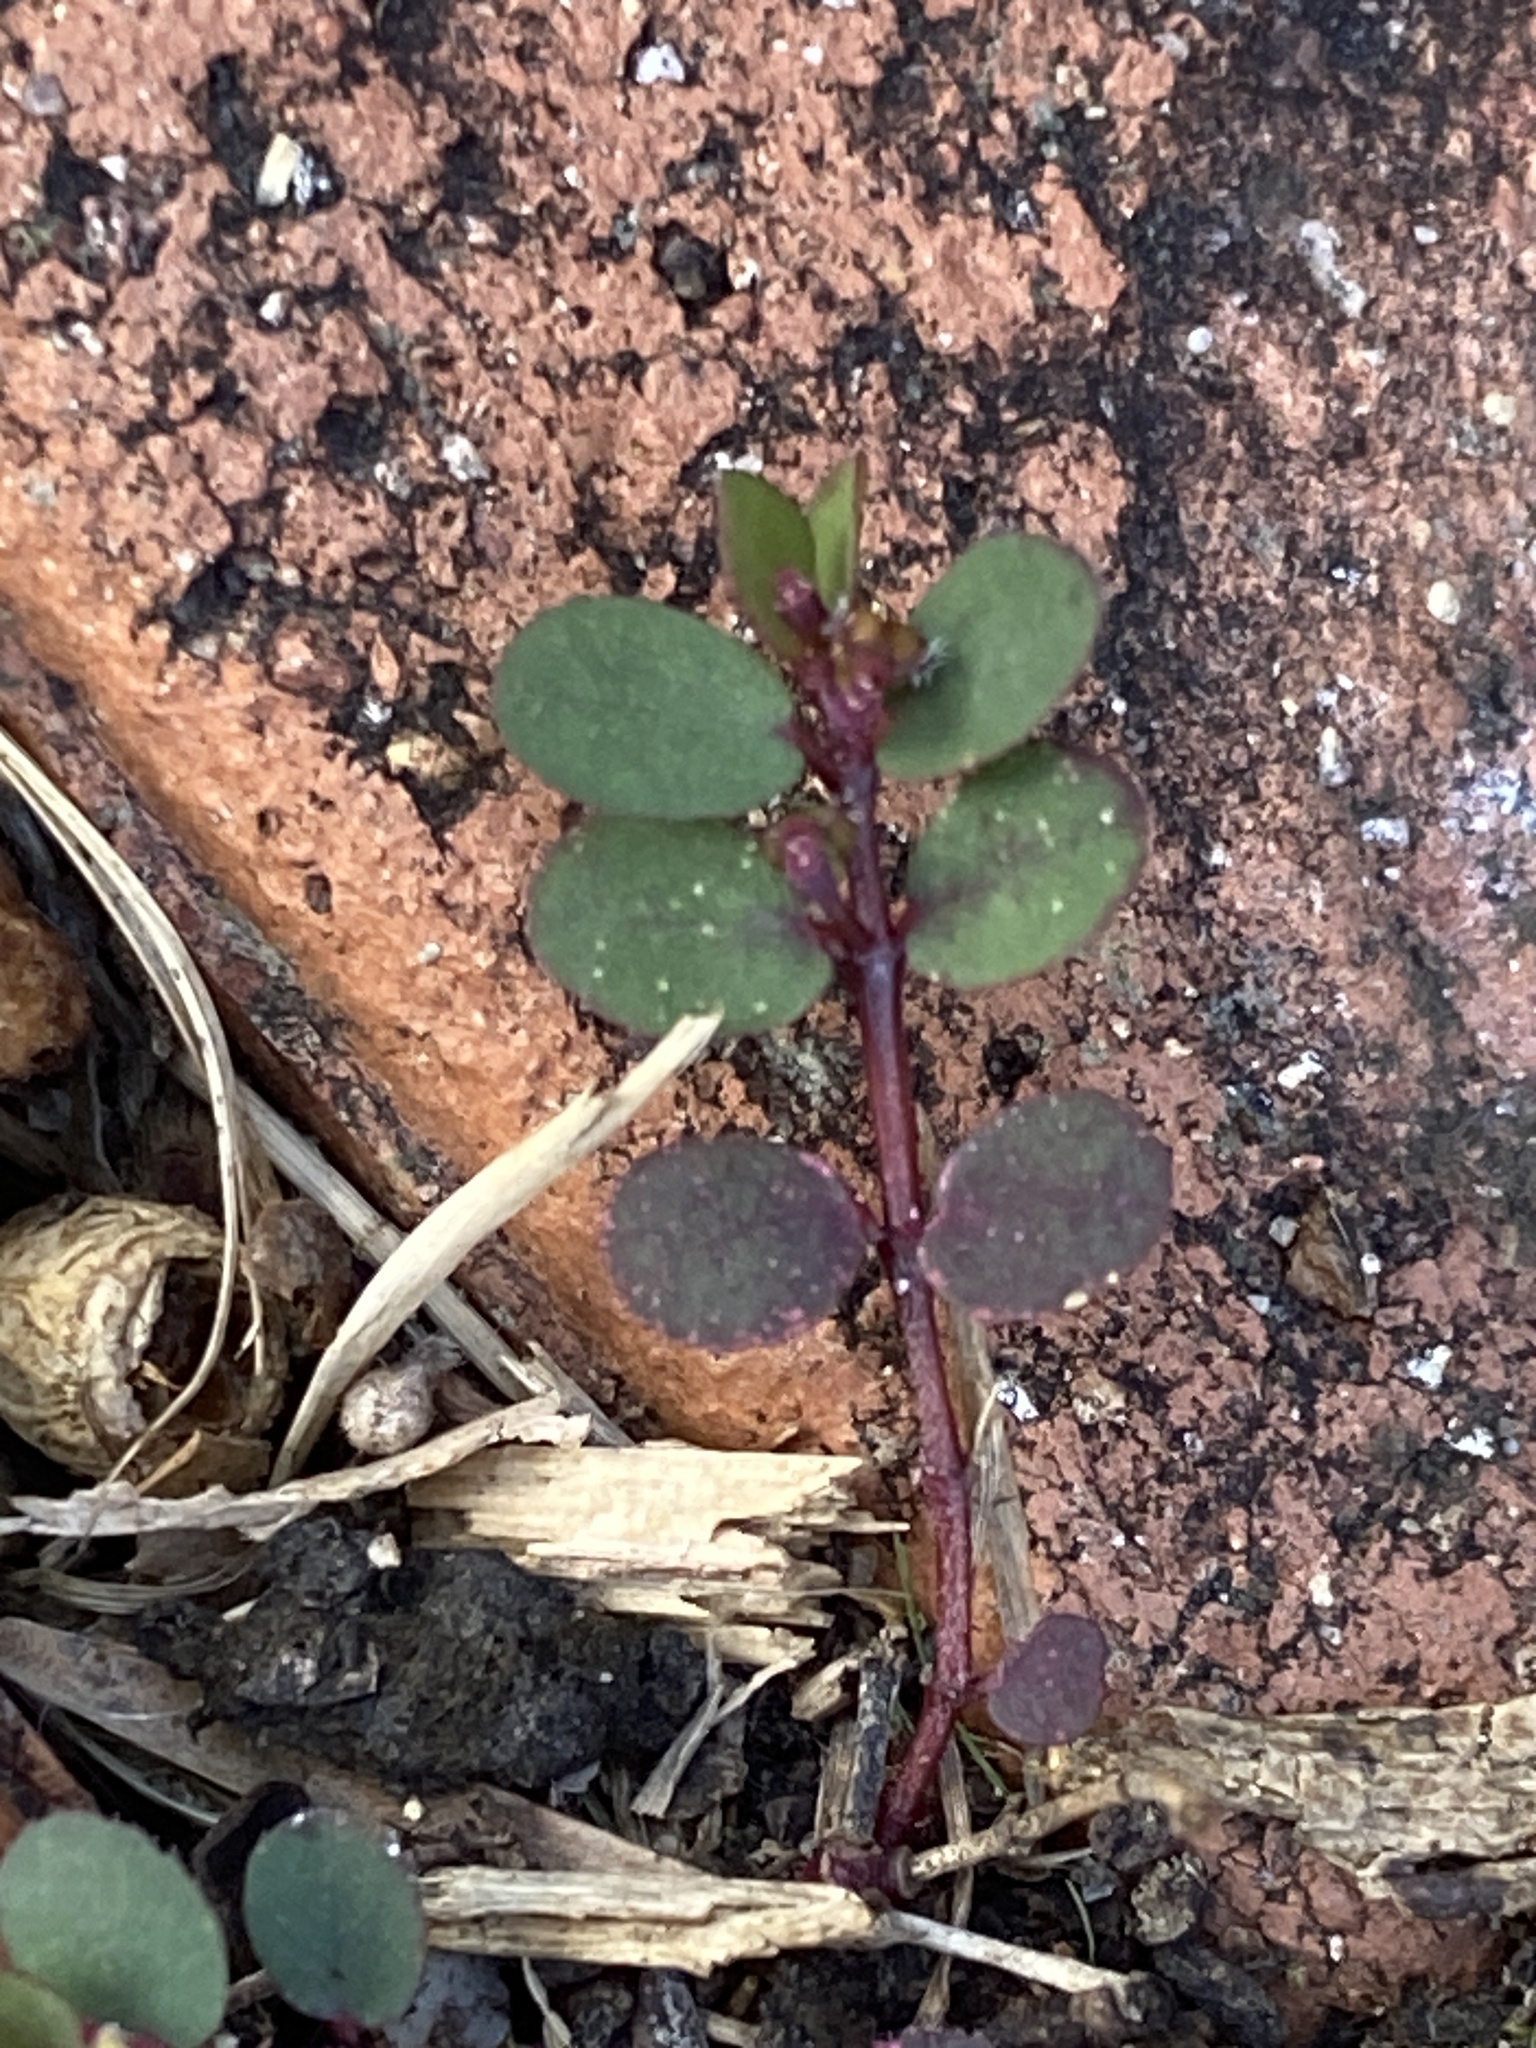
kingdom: Plantae
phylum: Tracheophyta
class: Magnoliopsida
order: Malpighiales
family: Euphorbiaceae
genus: Euphorbia
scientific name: Euphorbia prostrata
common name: Prostrate sandmat
